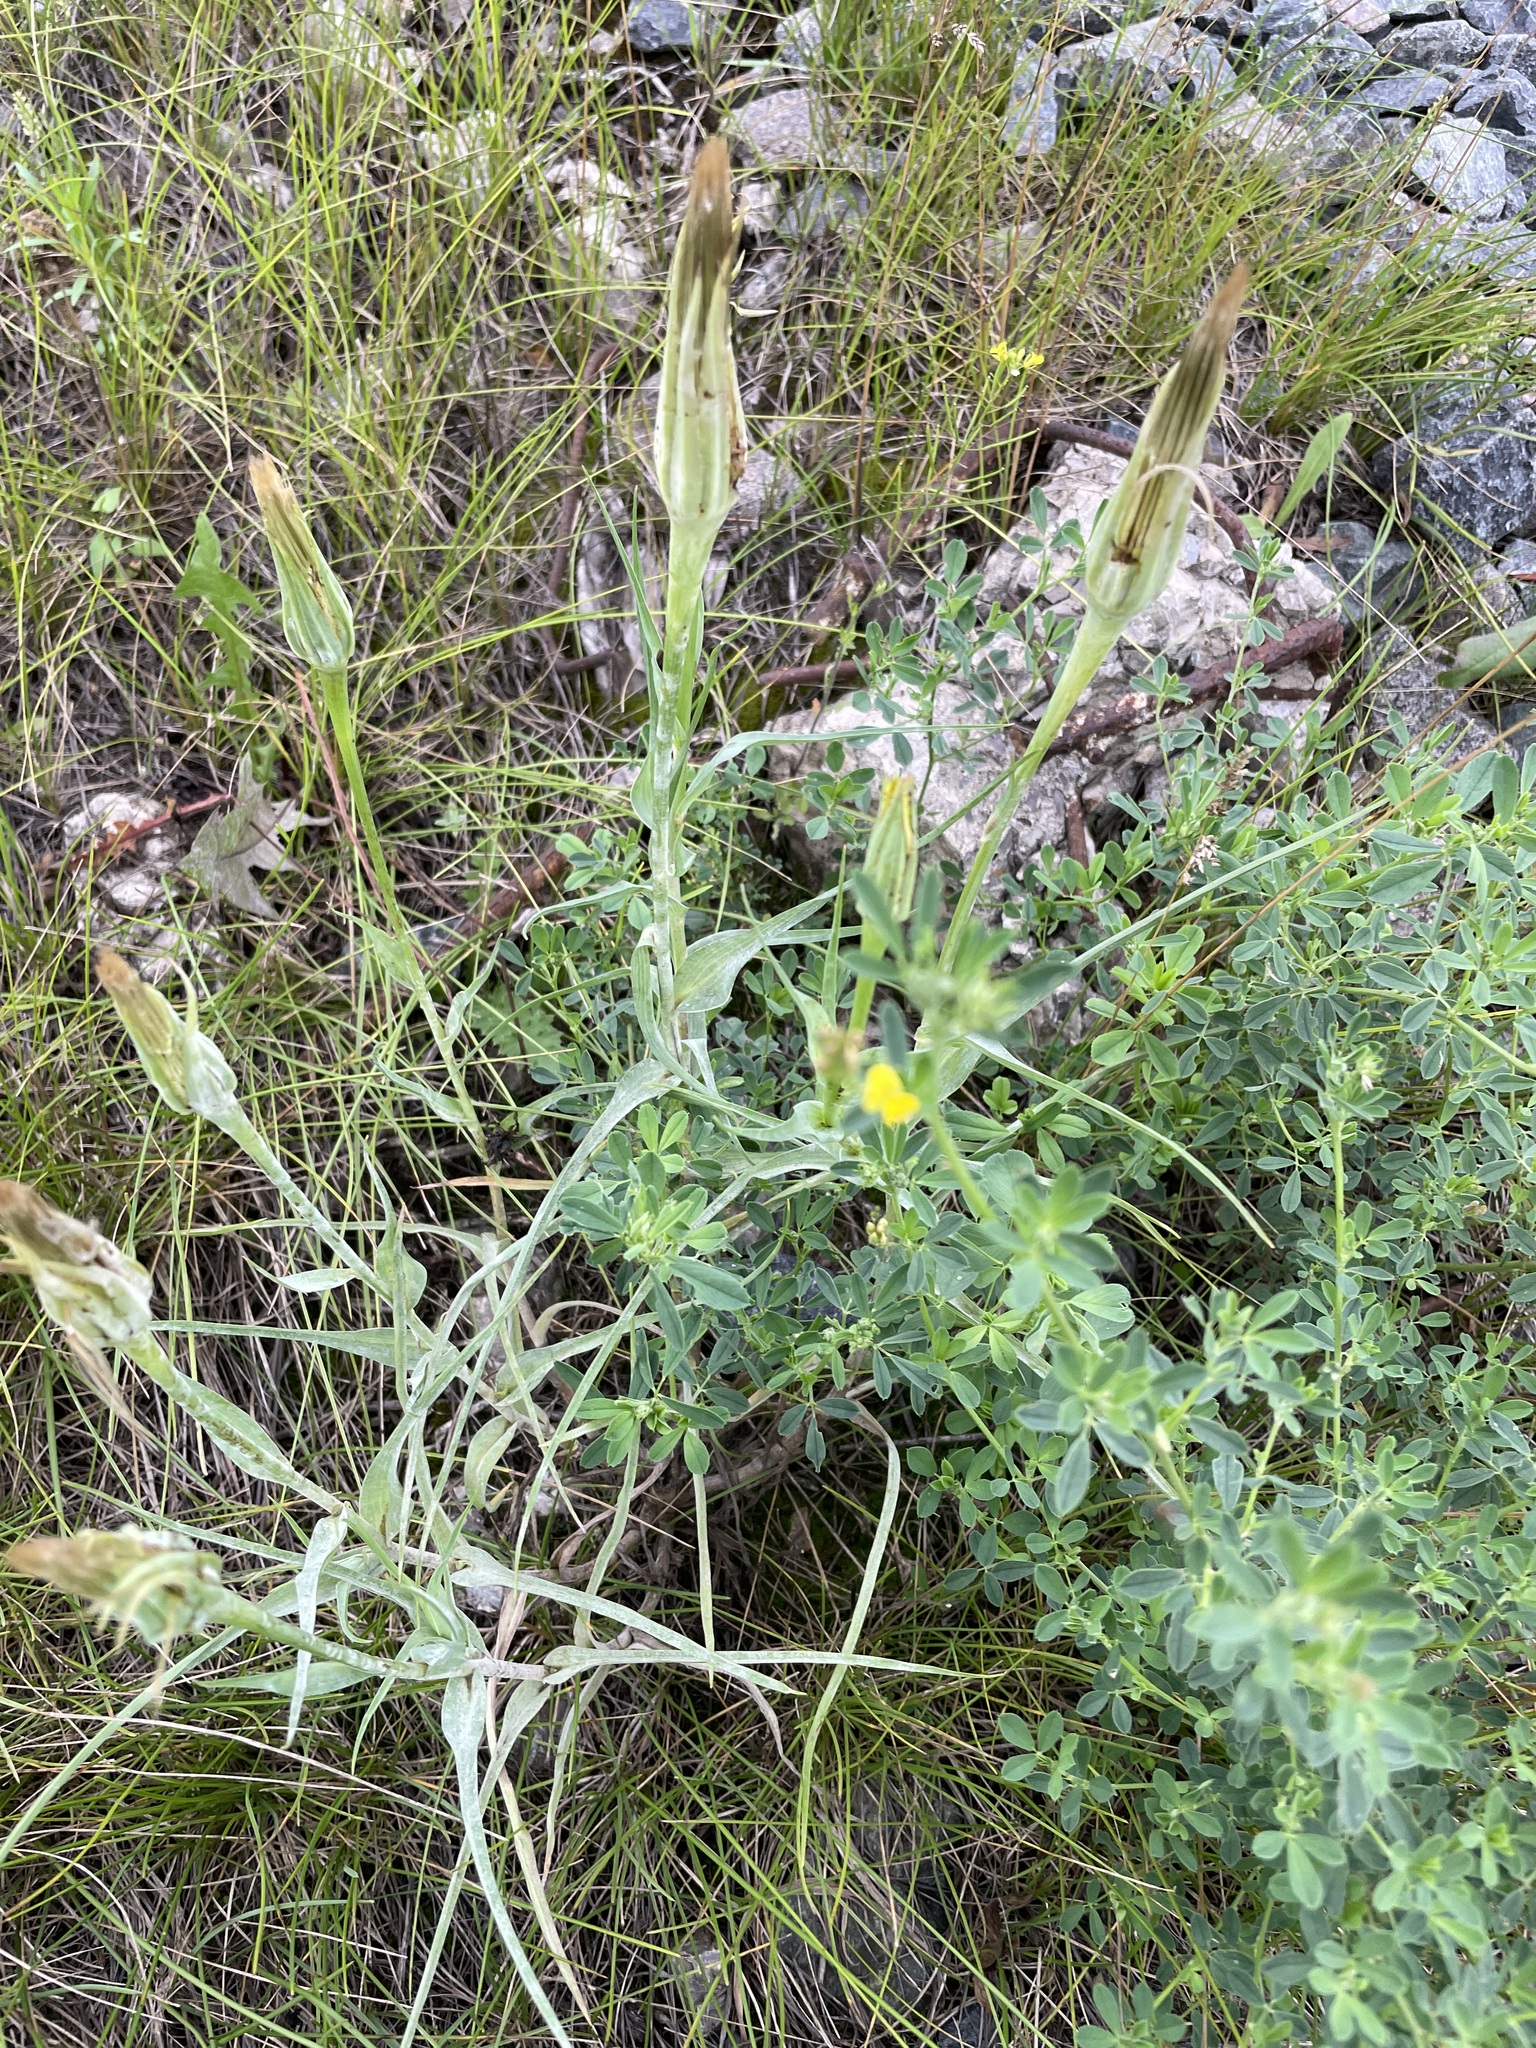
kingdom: Plantae
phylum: Tracheophyta
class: Magnoliopsida
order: Asterales
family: Asteraceae
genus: Tragopogon
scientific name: Tragopogon dubius
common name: Yellow salsify
